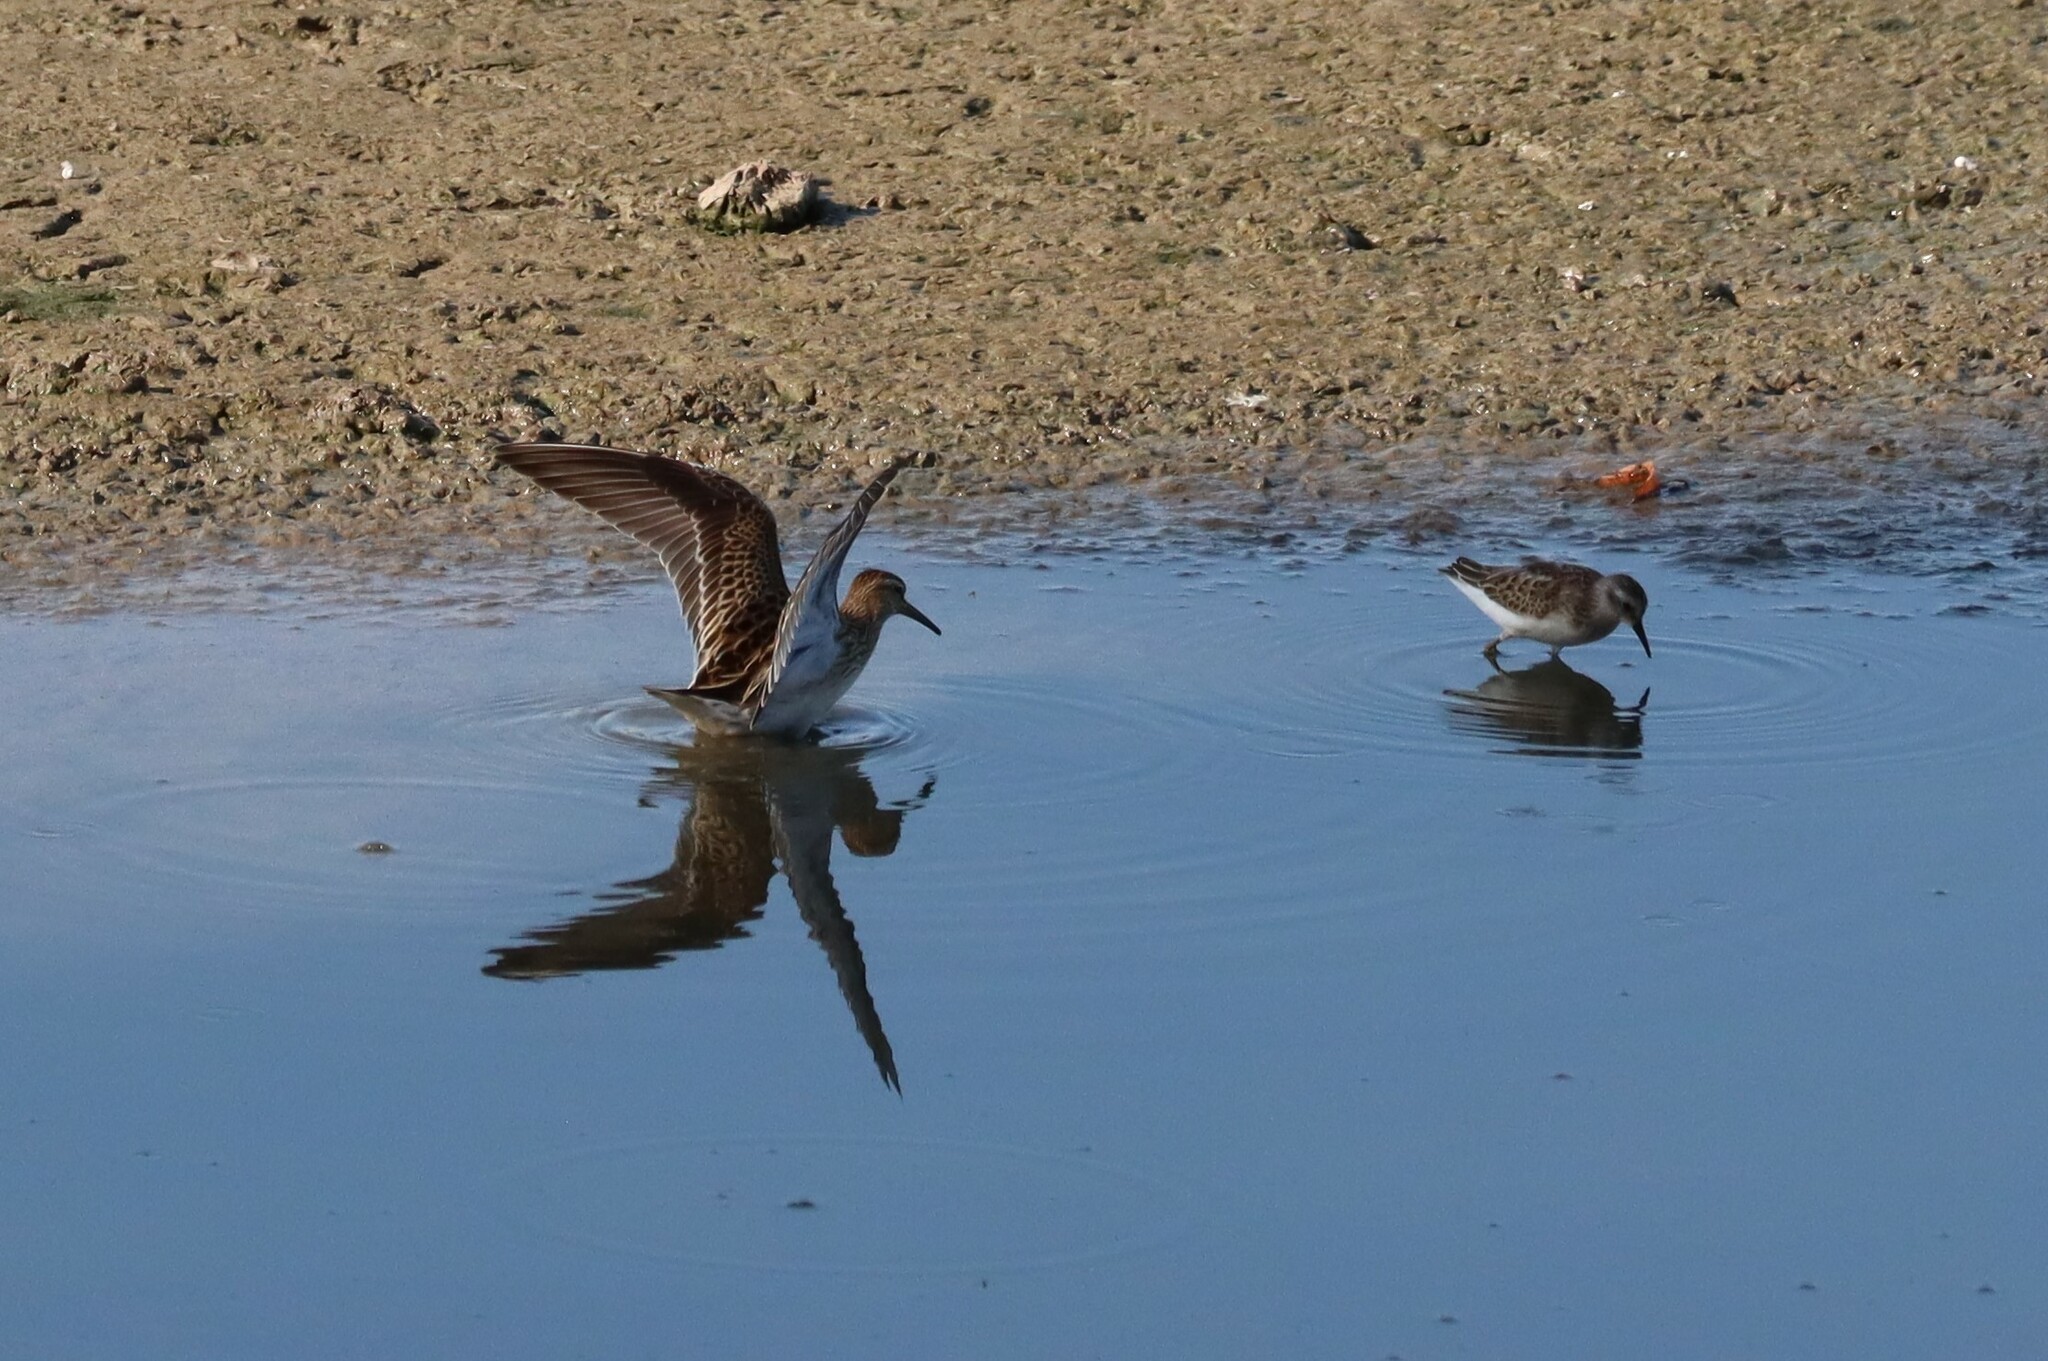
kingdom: Animalia
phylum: Chordata
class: Aves
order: Charadriiformes
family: Scolopacidae
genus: Calidris
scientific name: Calidris minutilla
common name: Least sandpiper
